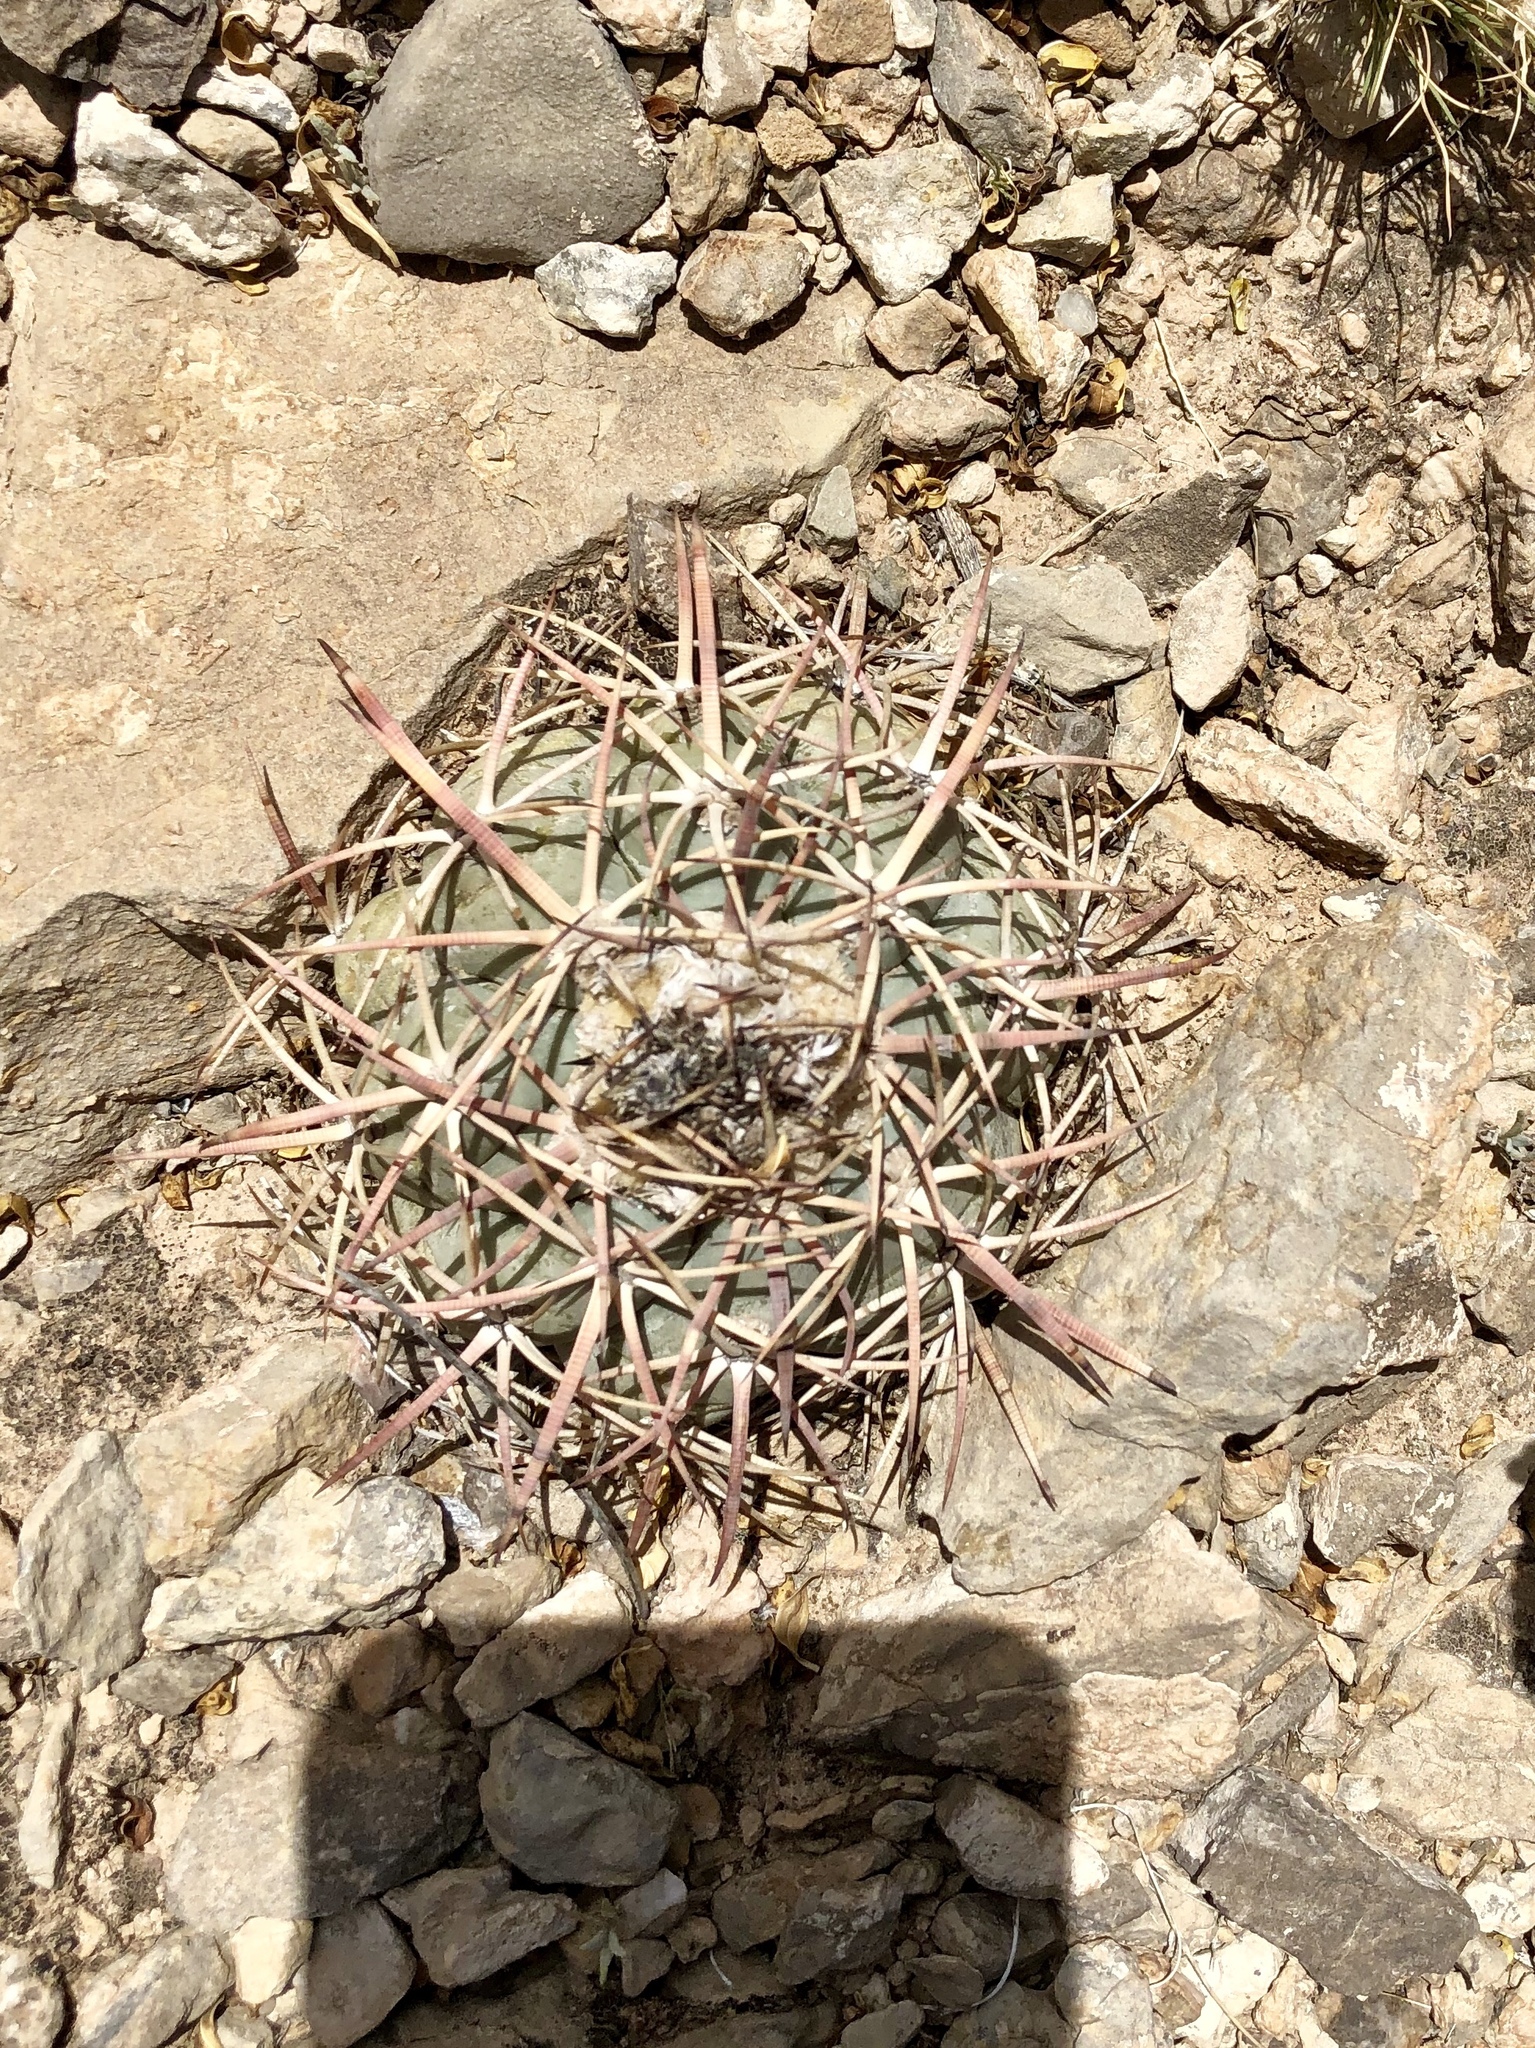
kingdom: Plantae
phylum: Tracheophyta
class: Magnoliopsida
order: Caryophyllales
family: Cactaceae
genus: Echinocactus
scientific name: Echinocactus horizonthalonius
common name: Devilshead
